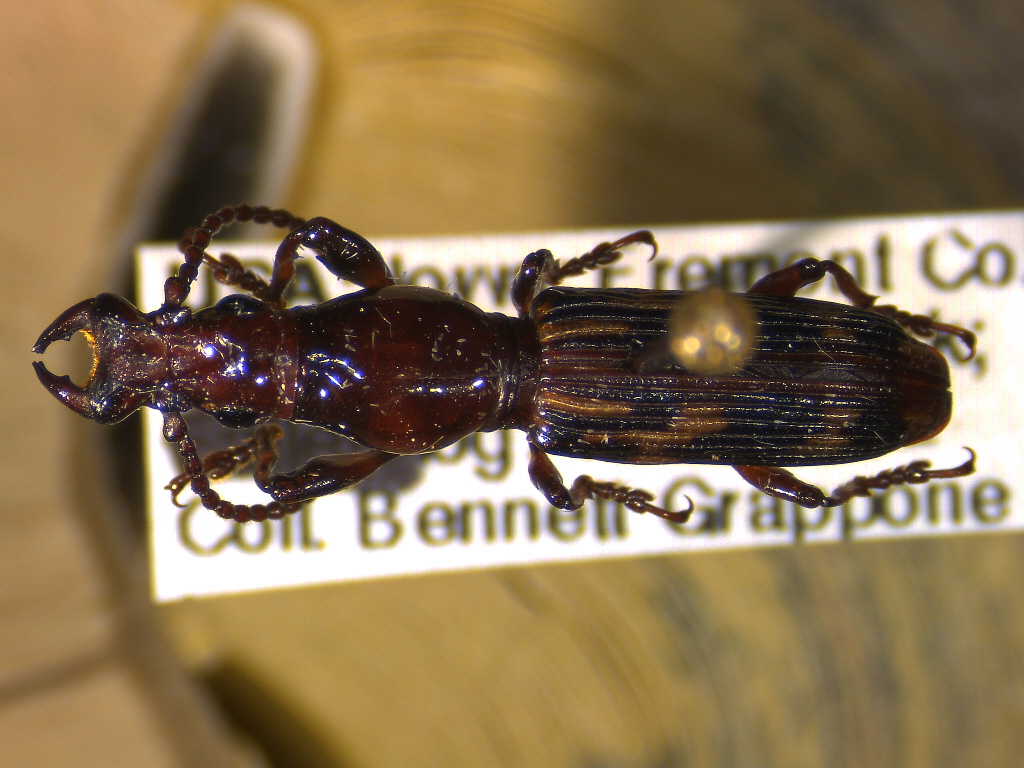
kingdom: Animalia
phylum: Arthropoda
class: Insecta
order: Coleoptera
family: Brentidae
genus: Arrenodes
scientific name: Arrenodes minutus
